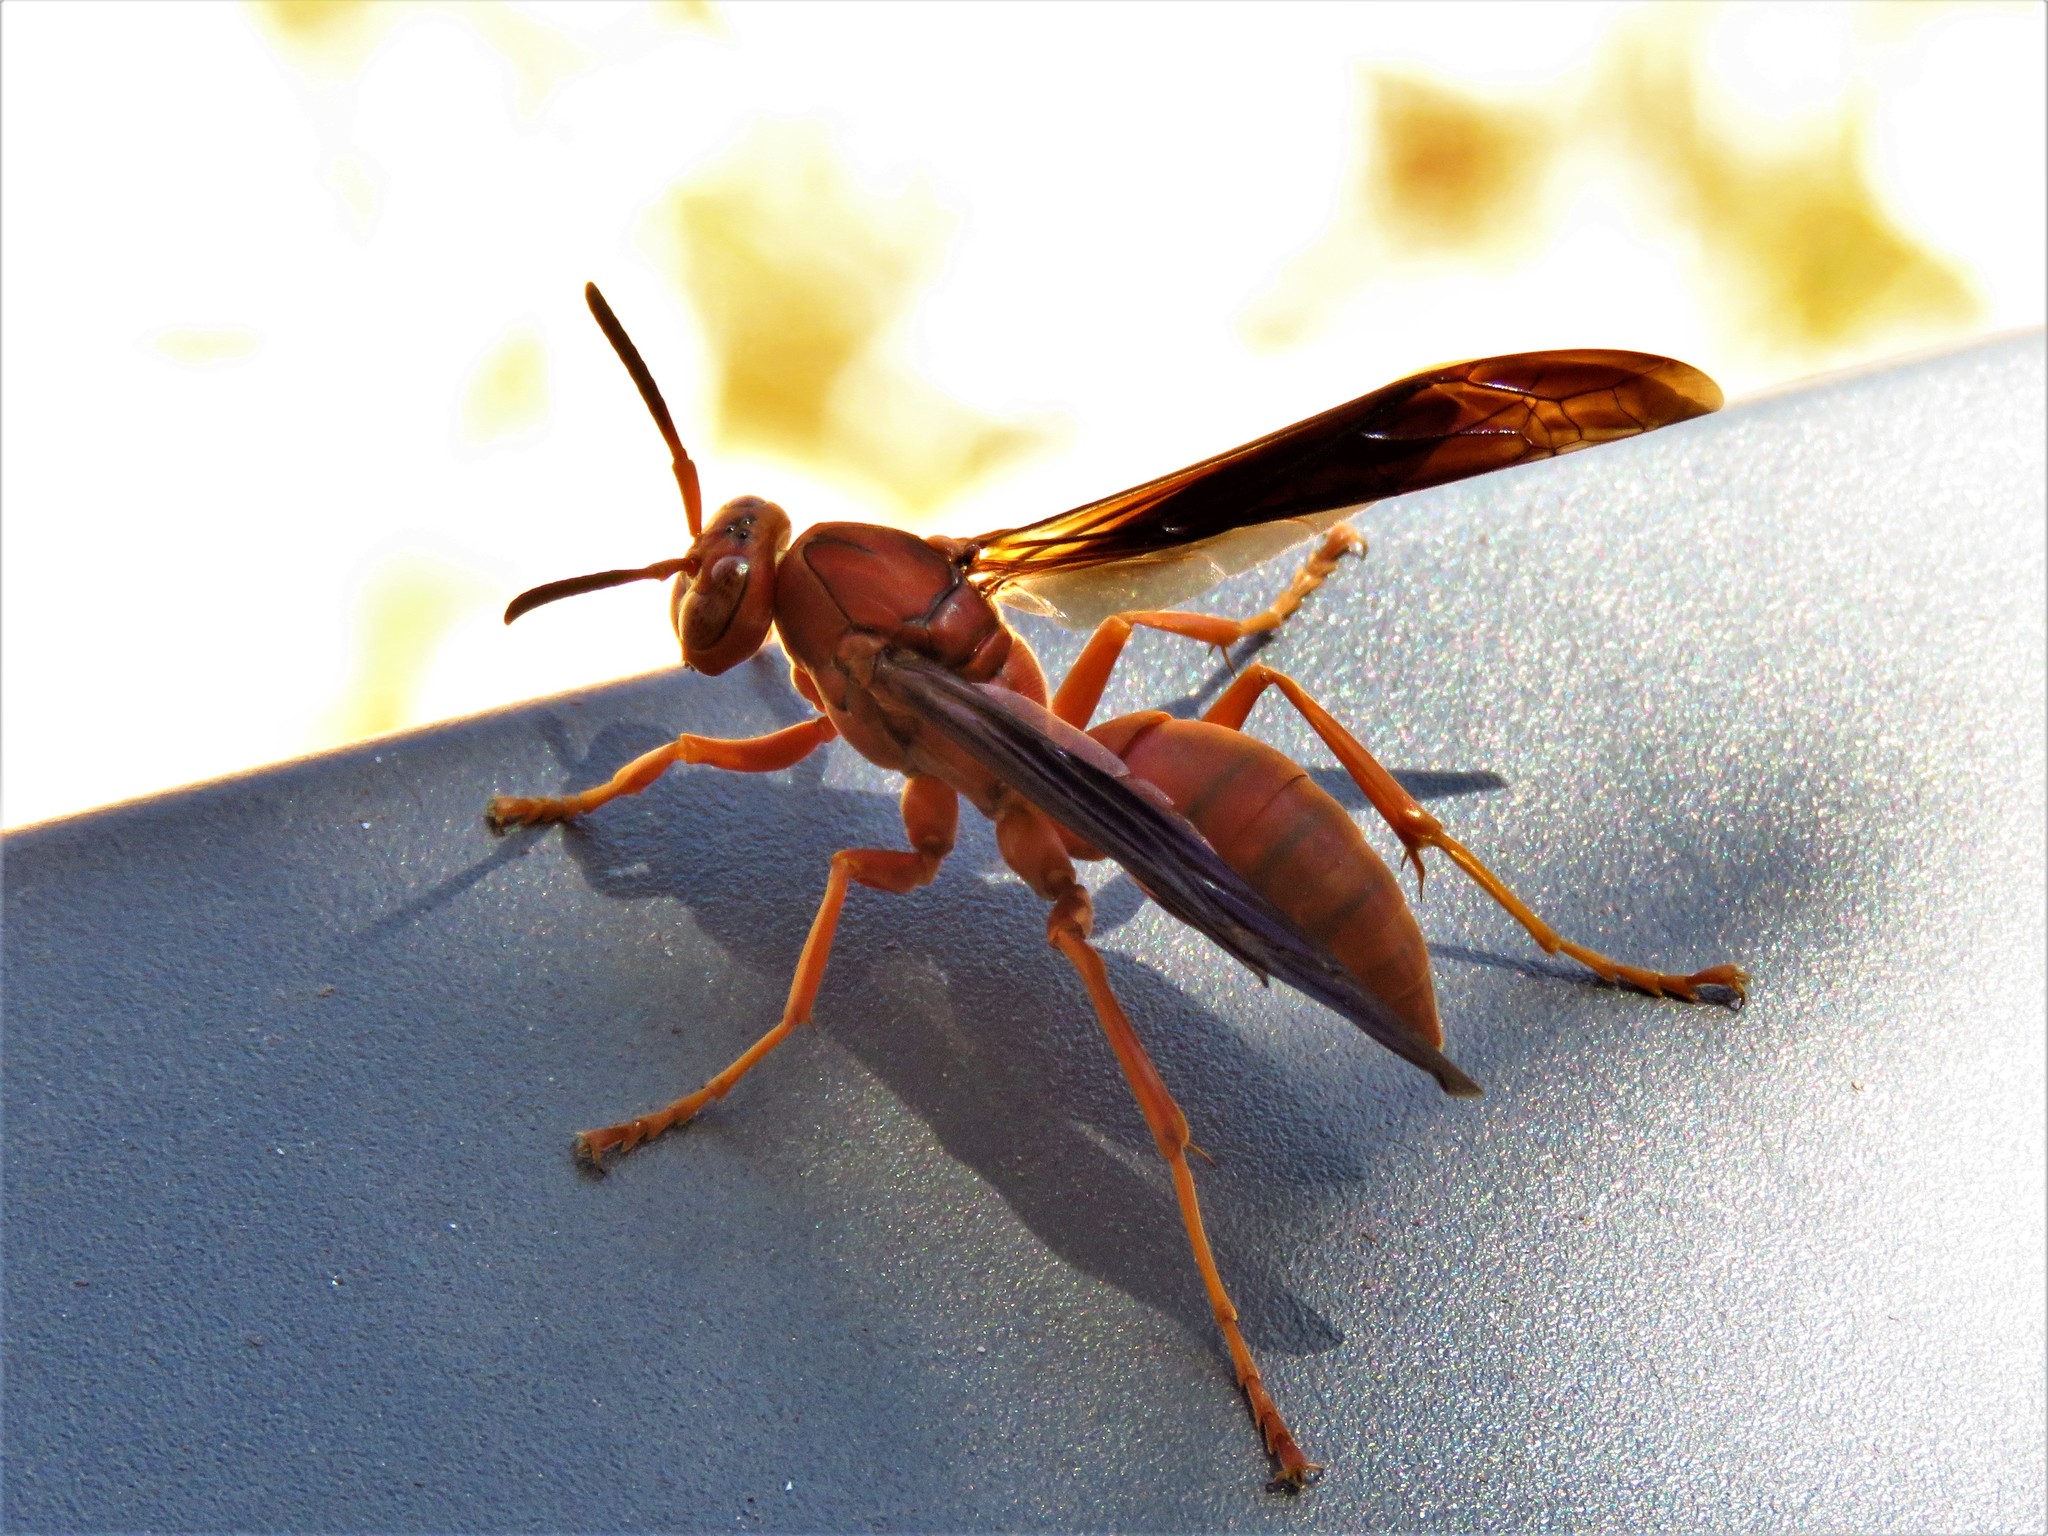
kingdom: Animalia
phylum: Arthropoda
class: Insecta
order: Hymenoptera
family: Eumenidae
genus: Polistes
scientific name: Polistes carolina
